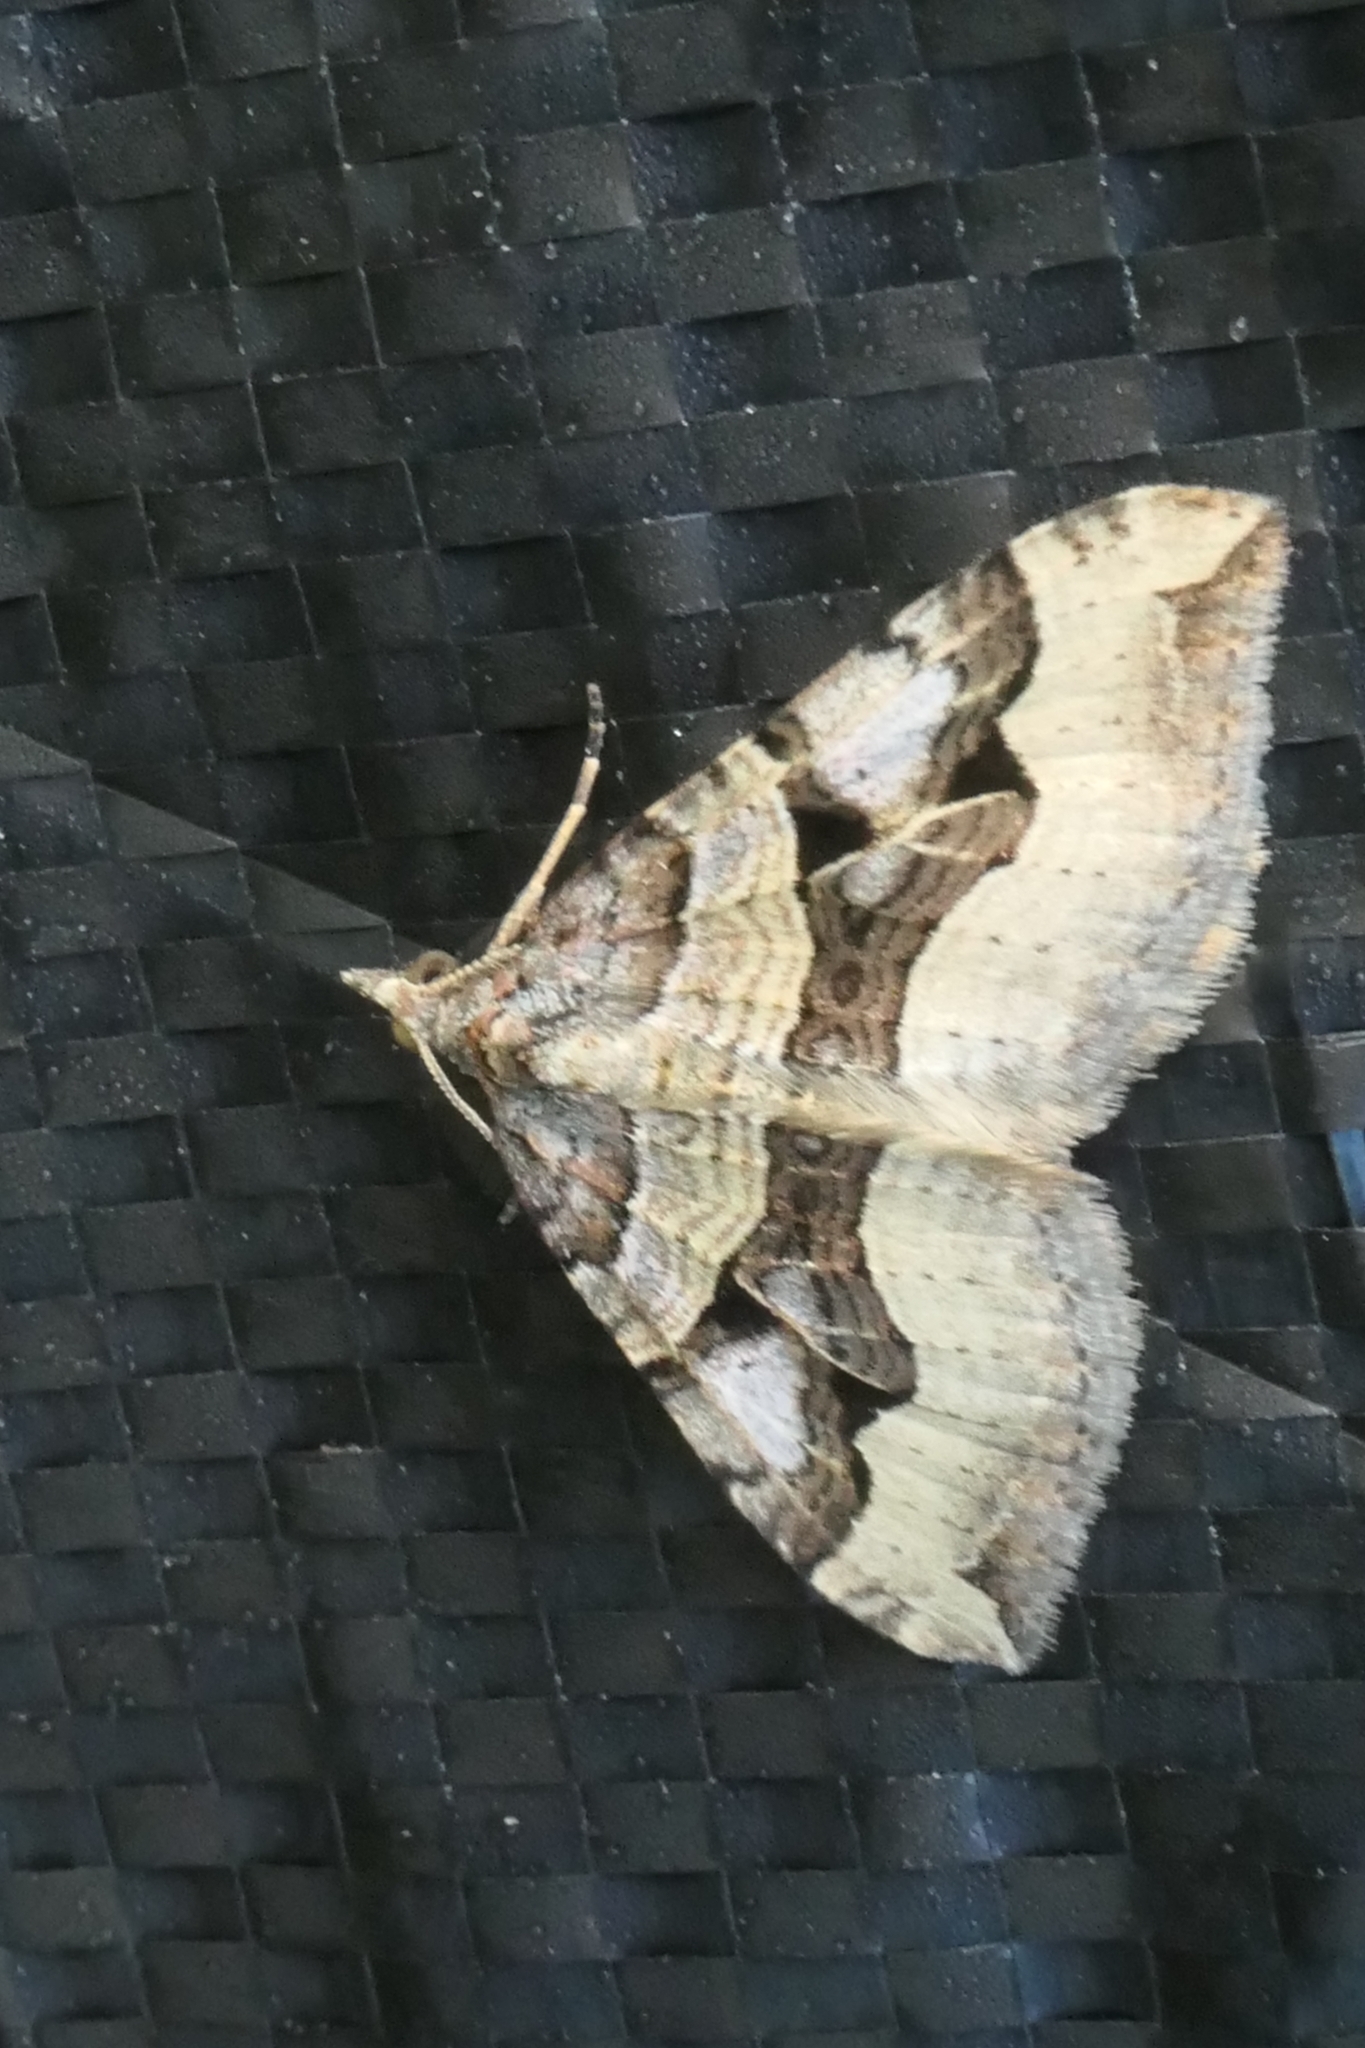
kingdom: Animalia
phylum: Arthropoda
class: Insecta
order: Lepidoptera
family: Geometridae
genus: Xanthorhoe
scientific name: Xanthorhoe semifissata
